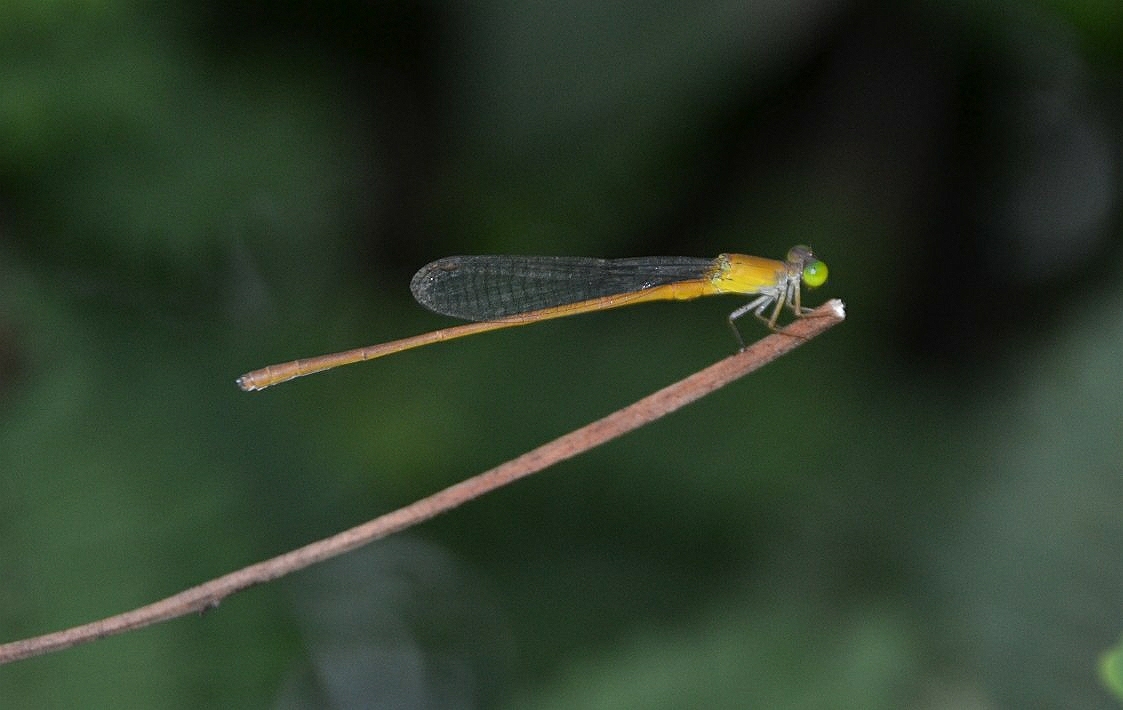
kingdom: Animalia
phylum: Arthropoda
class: Insecta
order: Odonata
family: Coenagrionidae
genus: Ceriagrion
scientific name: Ceriagrion olivaceum
